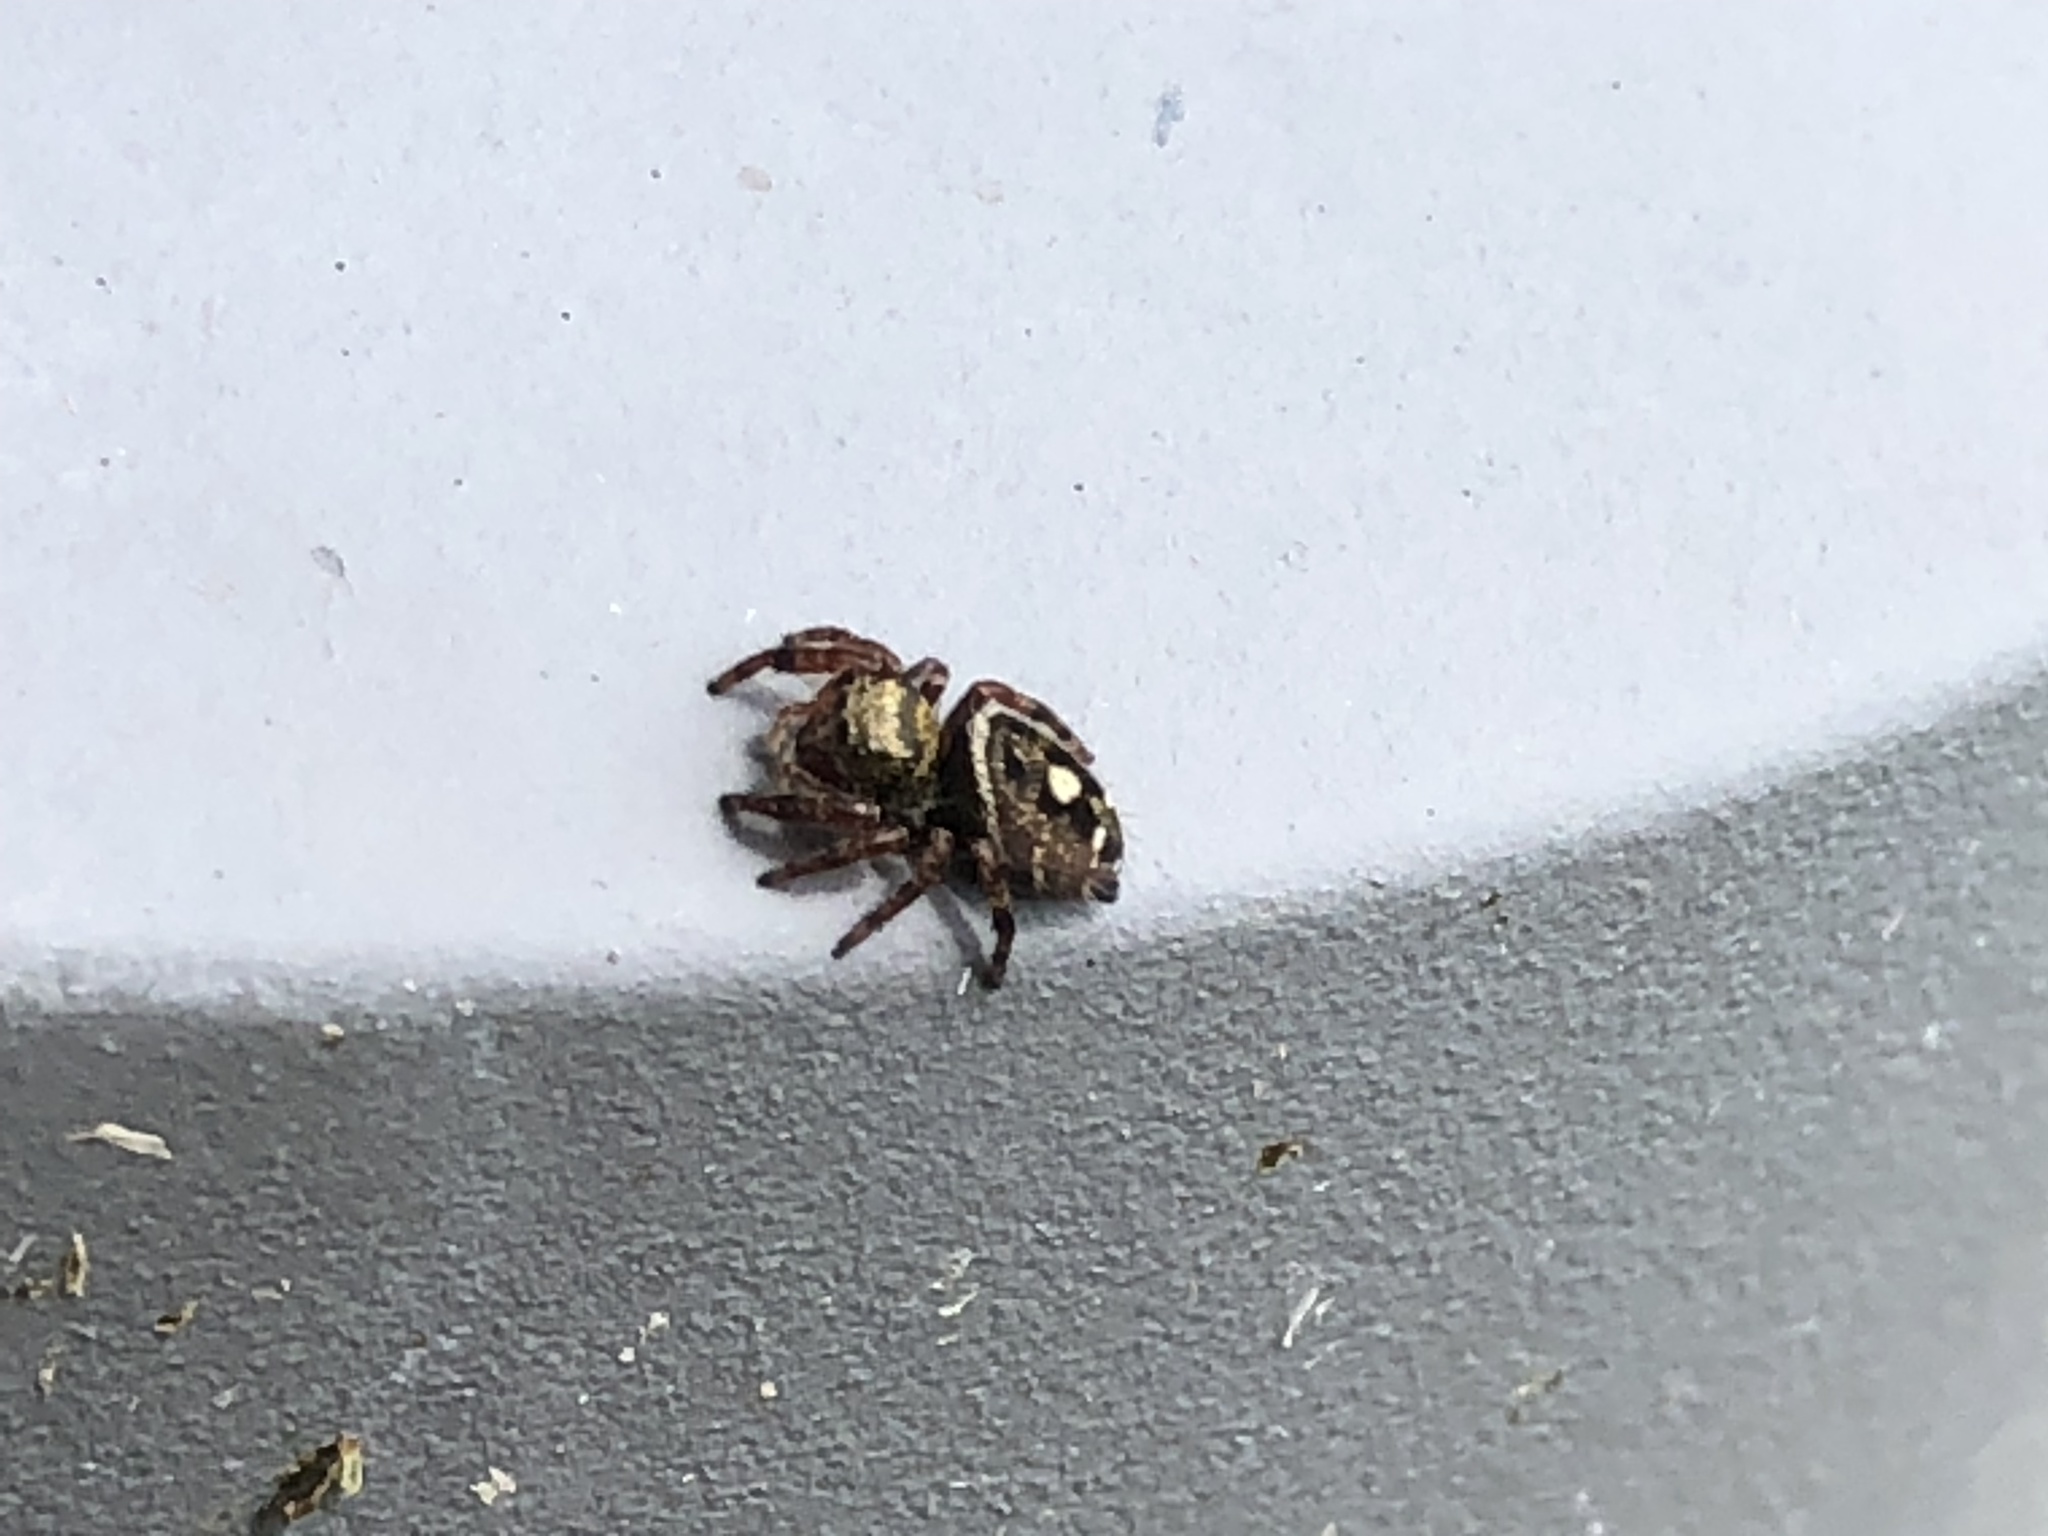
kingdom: Animalia
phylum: Arthropoda
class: Arachnida
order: Araneae
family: Salticidae
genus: Phidippus
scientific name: Phidippus audax
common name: Bold jumper
